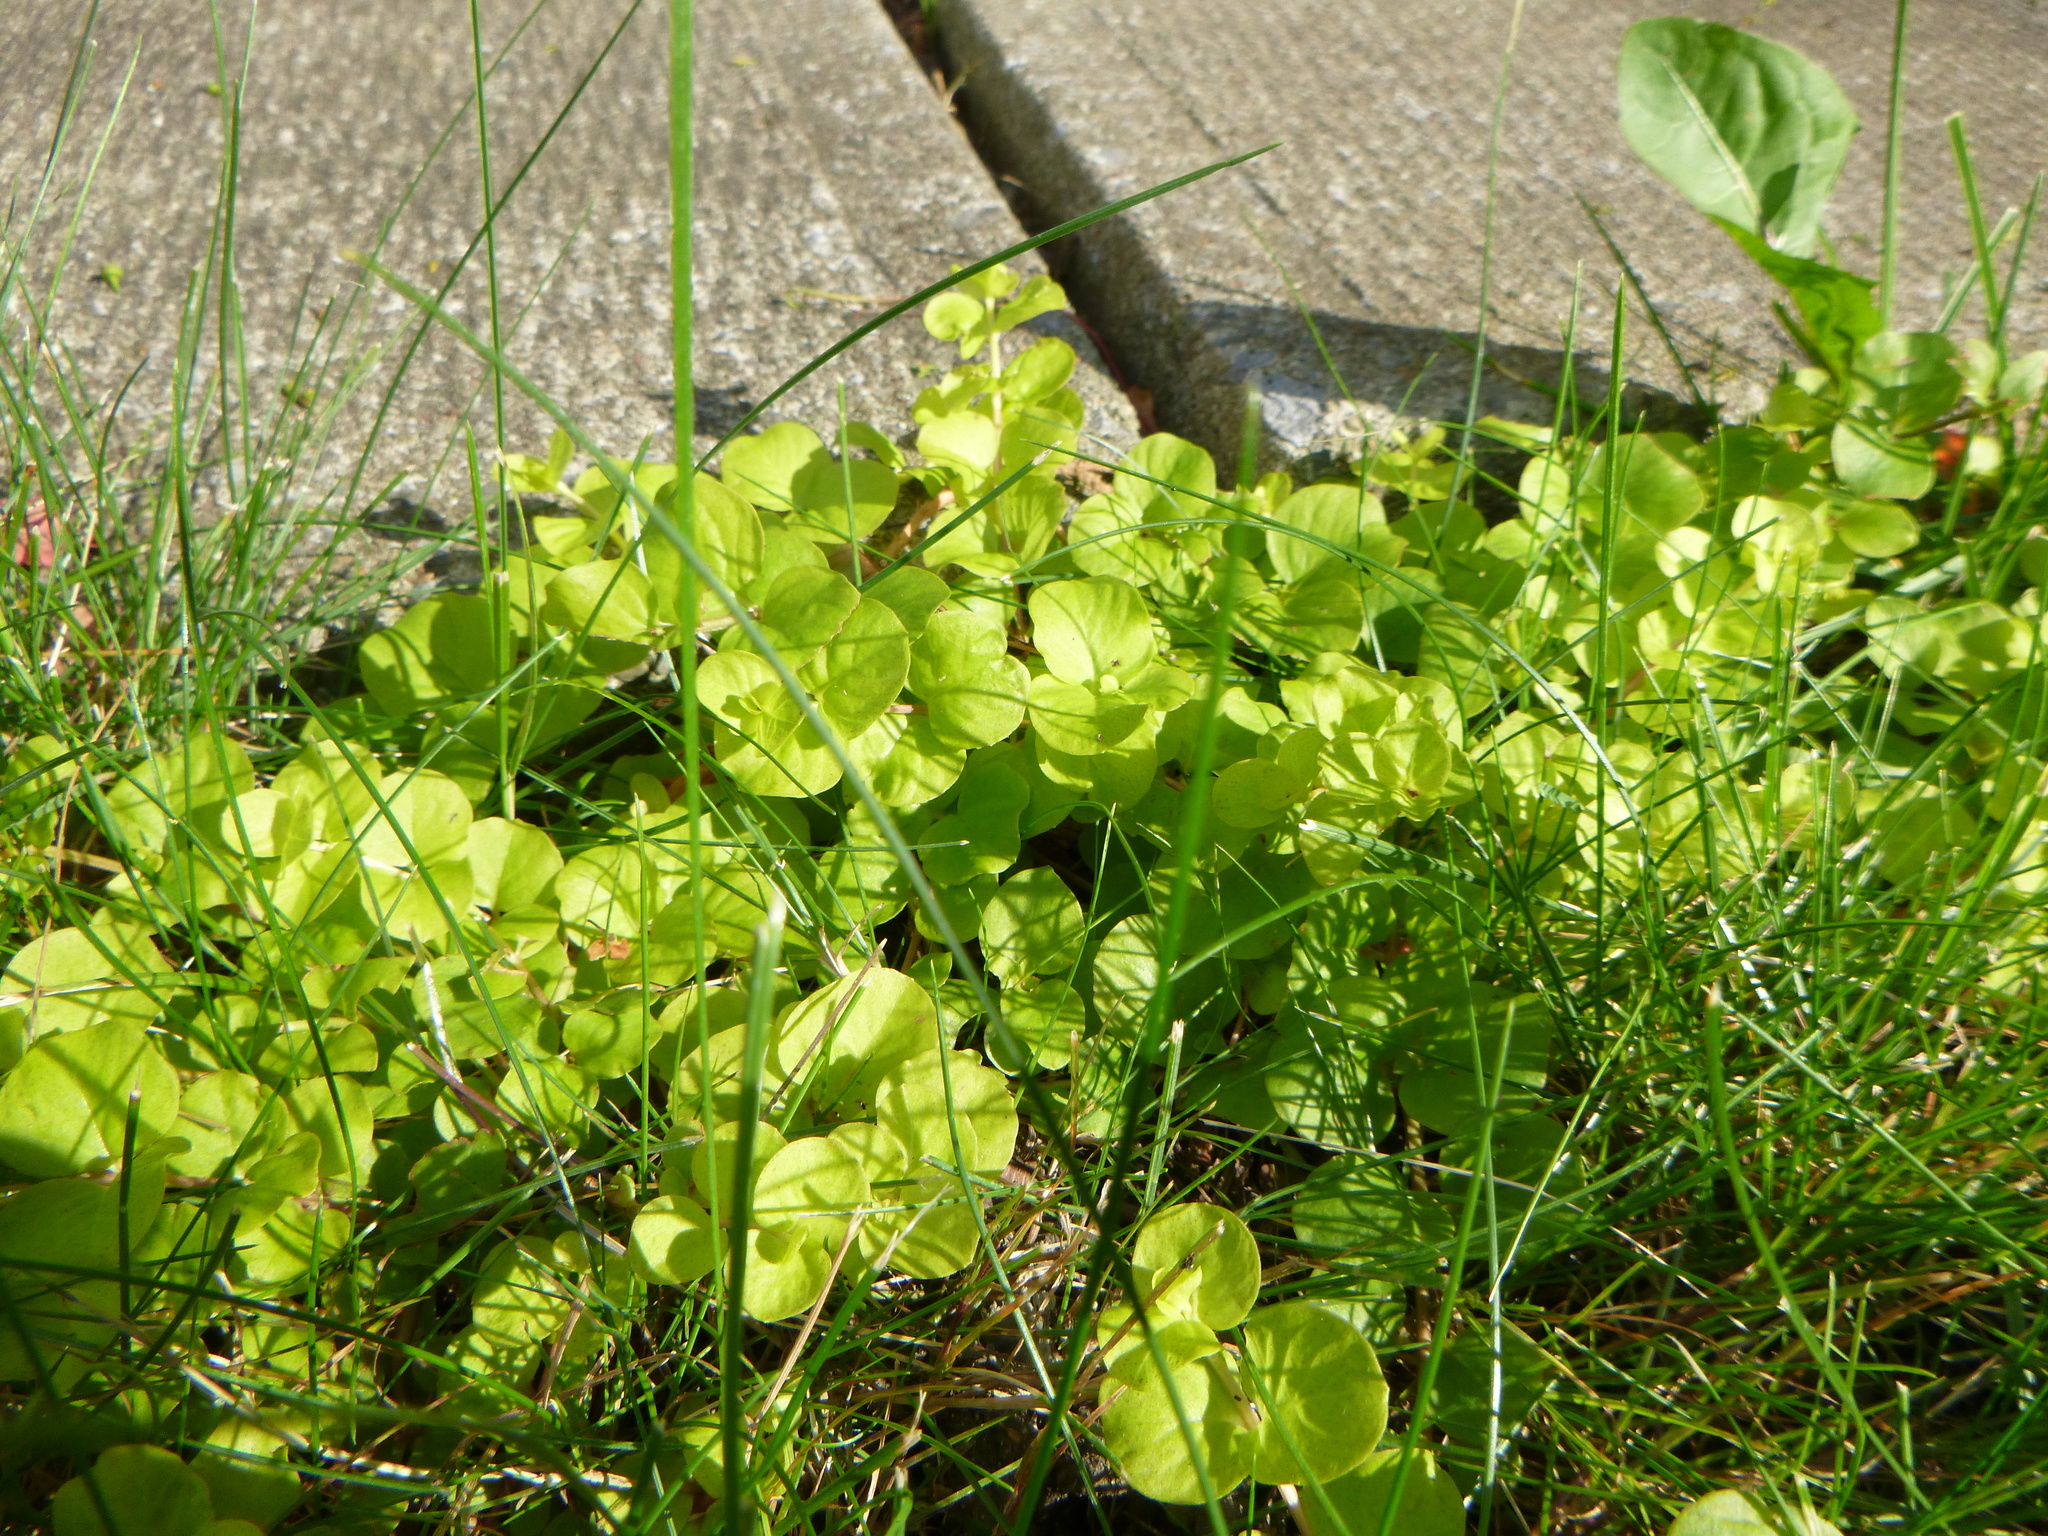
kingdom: Plantae
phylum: Tracheophyta
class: Magnoliopsida
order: Ericales
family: Primulaceae
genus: Lysimachia
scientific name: Lysimachia nummularia
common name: Moneywort
